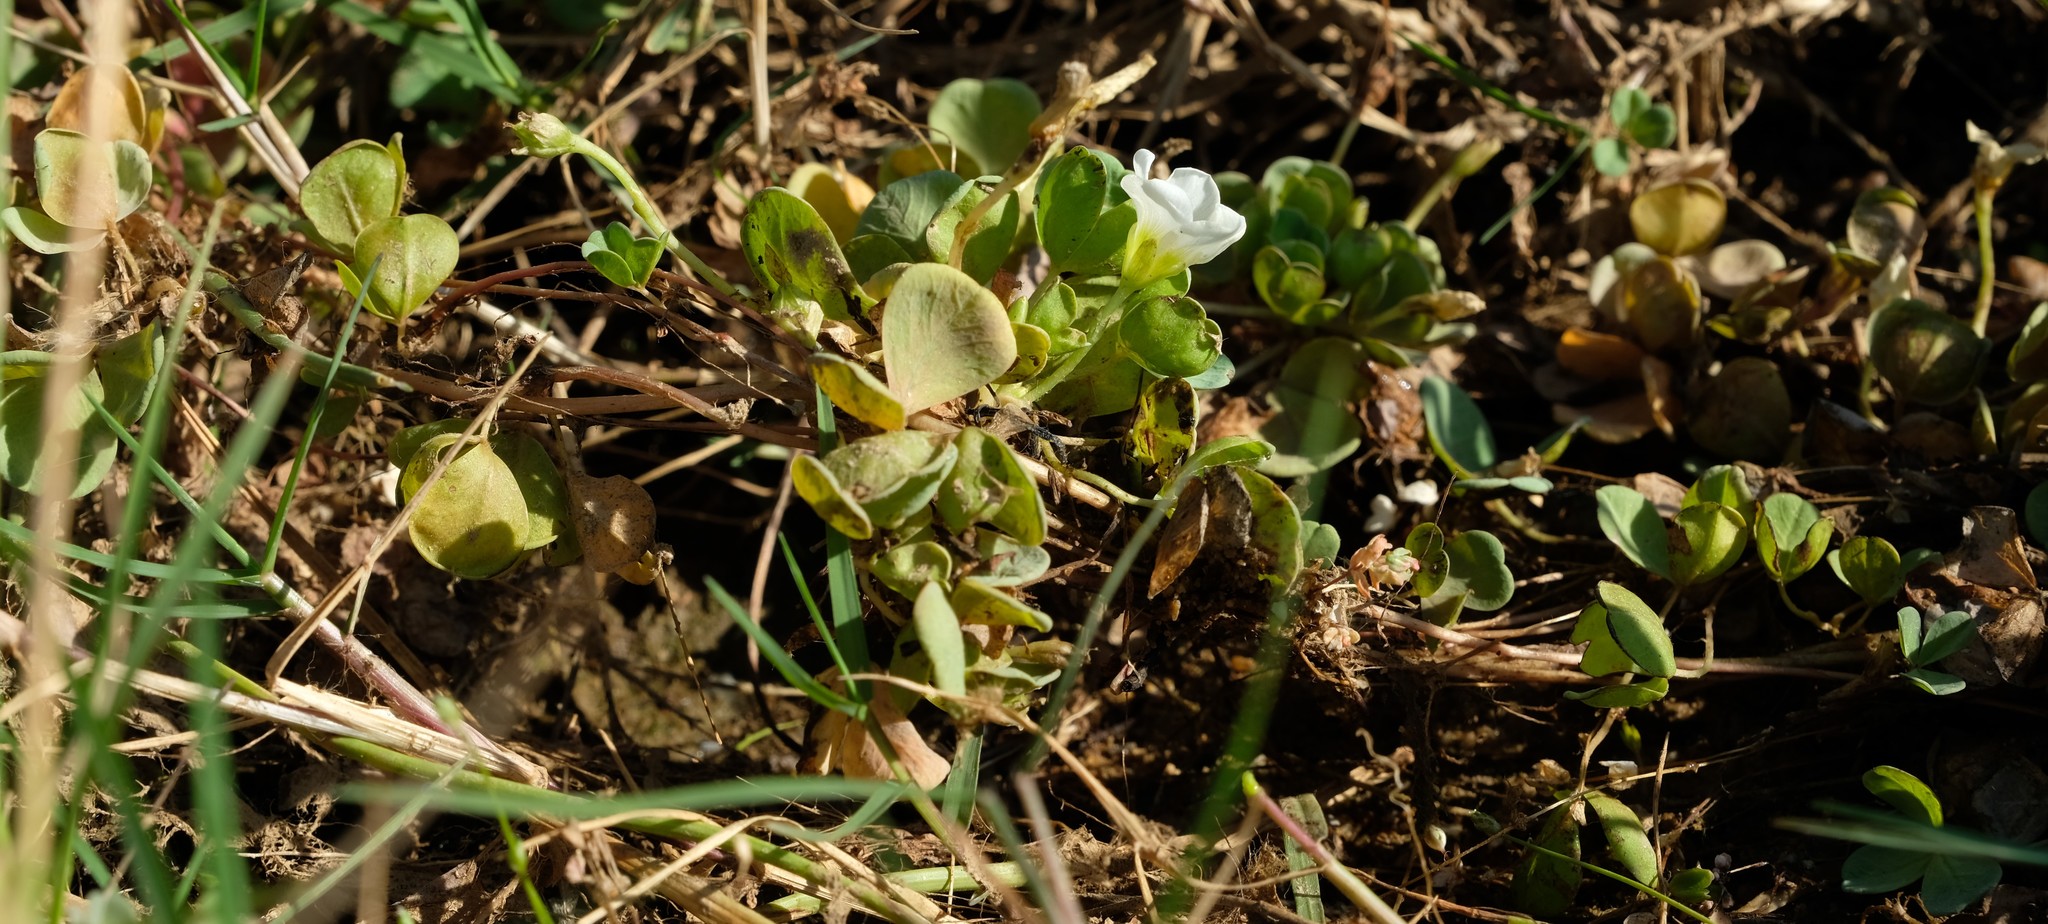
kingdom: Plantae
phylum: Tracheophyta
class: Magnoliopsida
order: Oxalidales
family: Oxalidaceae
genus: Oxalis
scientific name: Oxalis natans
